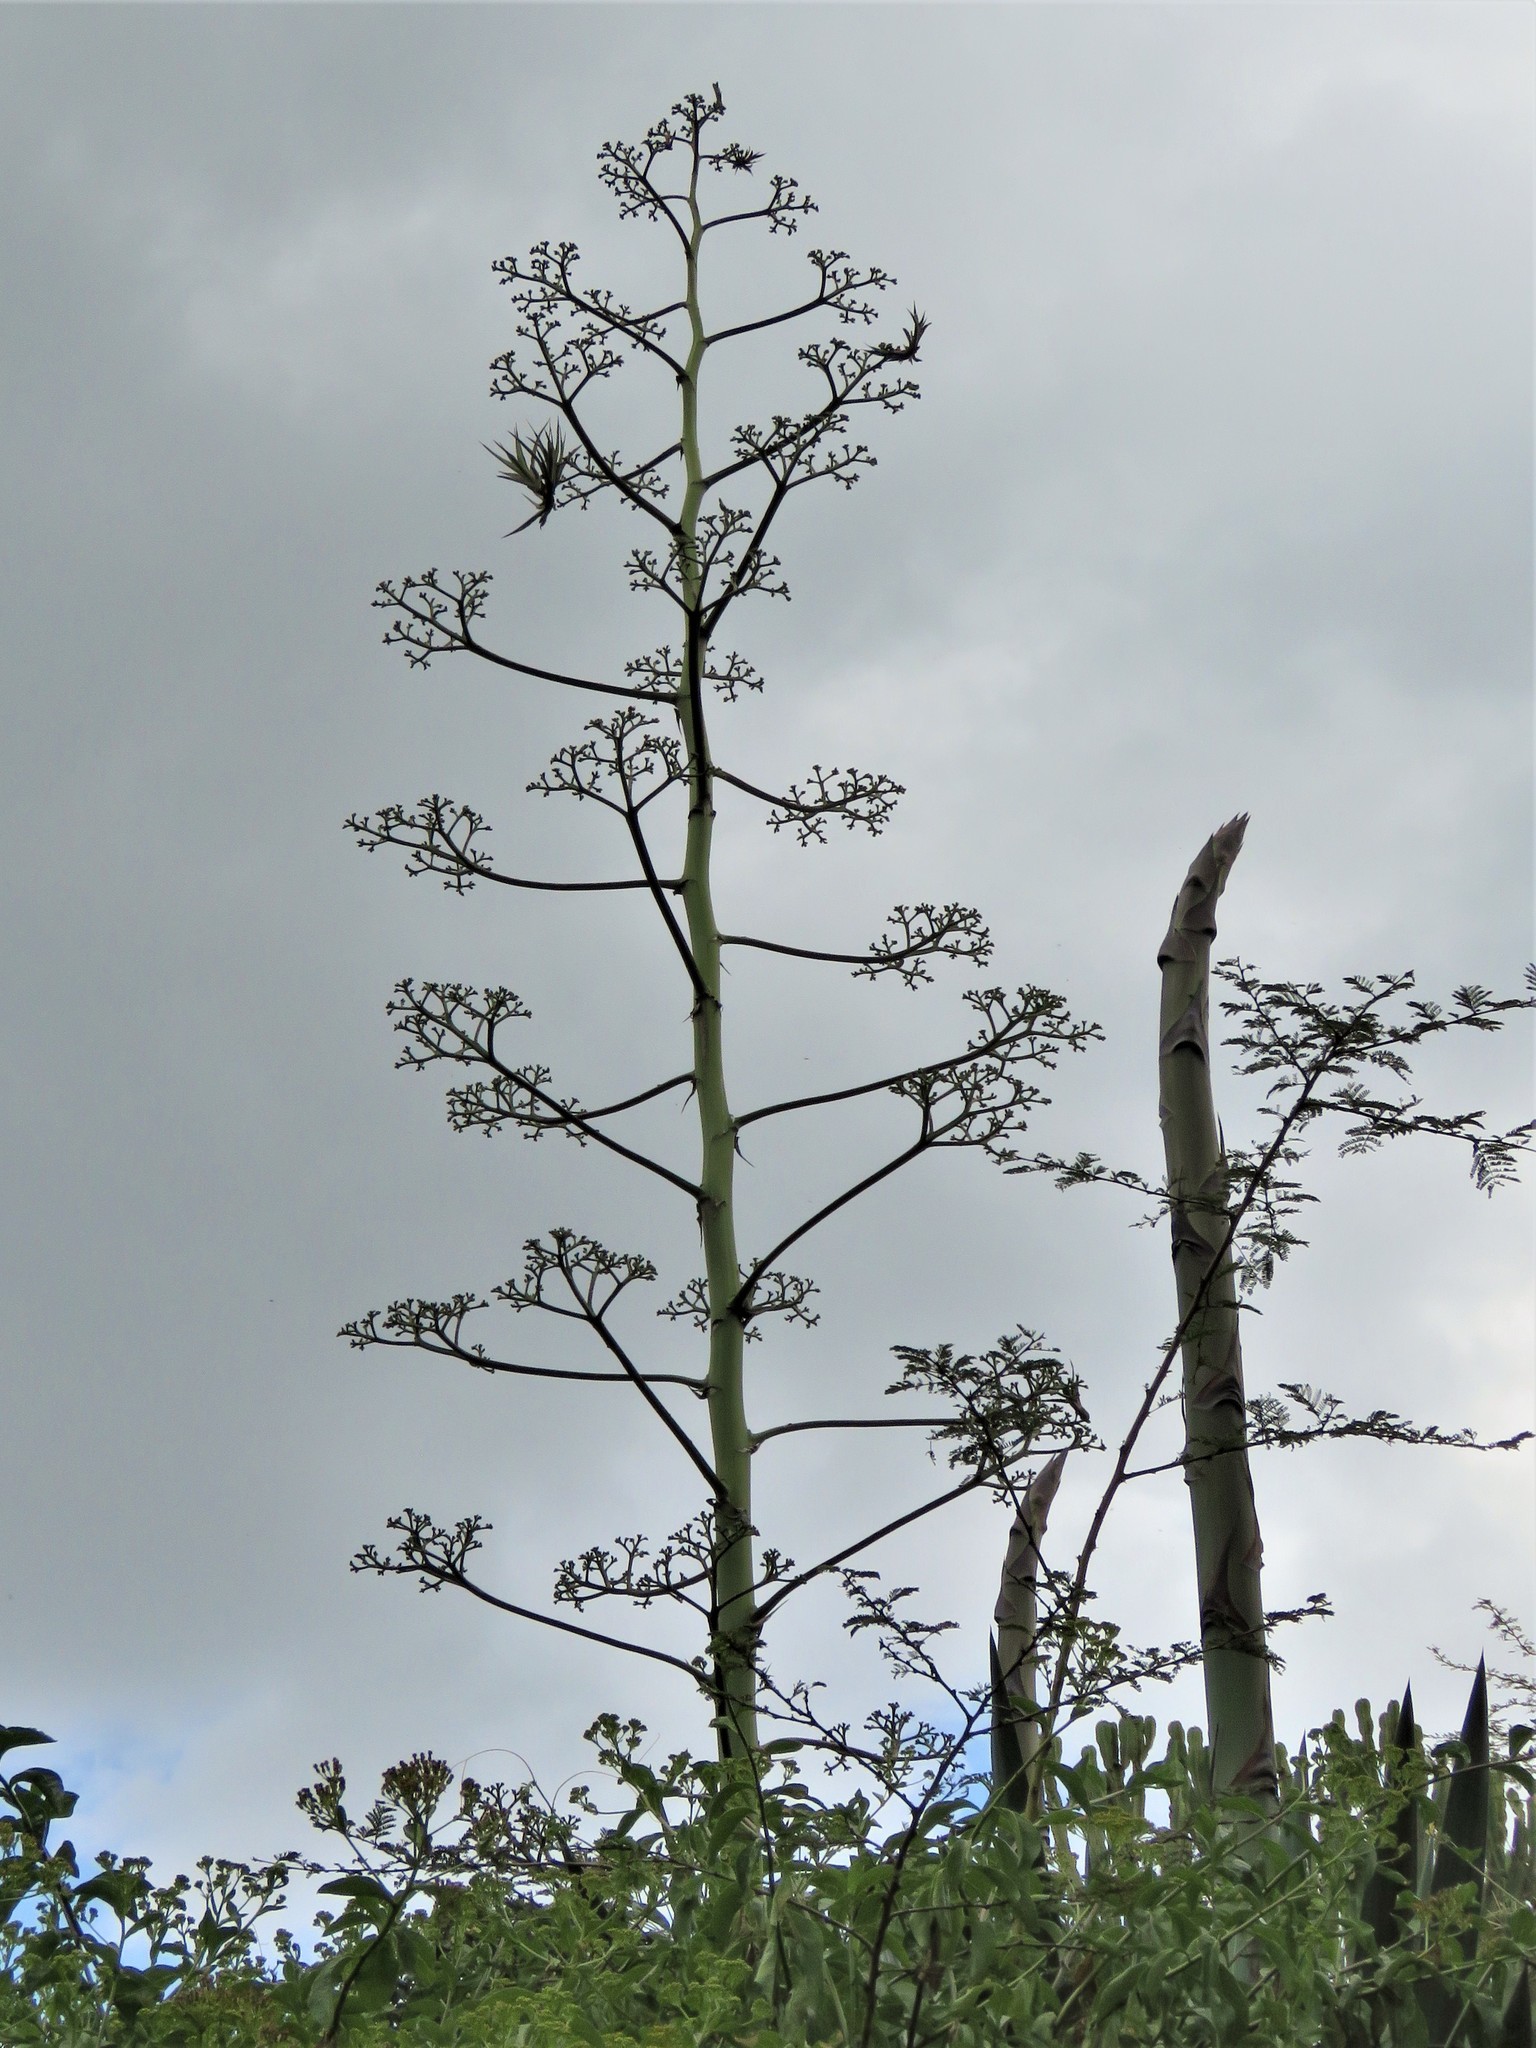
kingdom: Plantae
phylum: Tracheophyta
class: Liliopsida
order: Asparagales
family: Asparagaceae
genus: Agave
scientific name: Agave sisalana
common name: Sisal hemp
